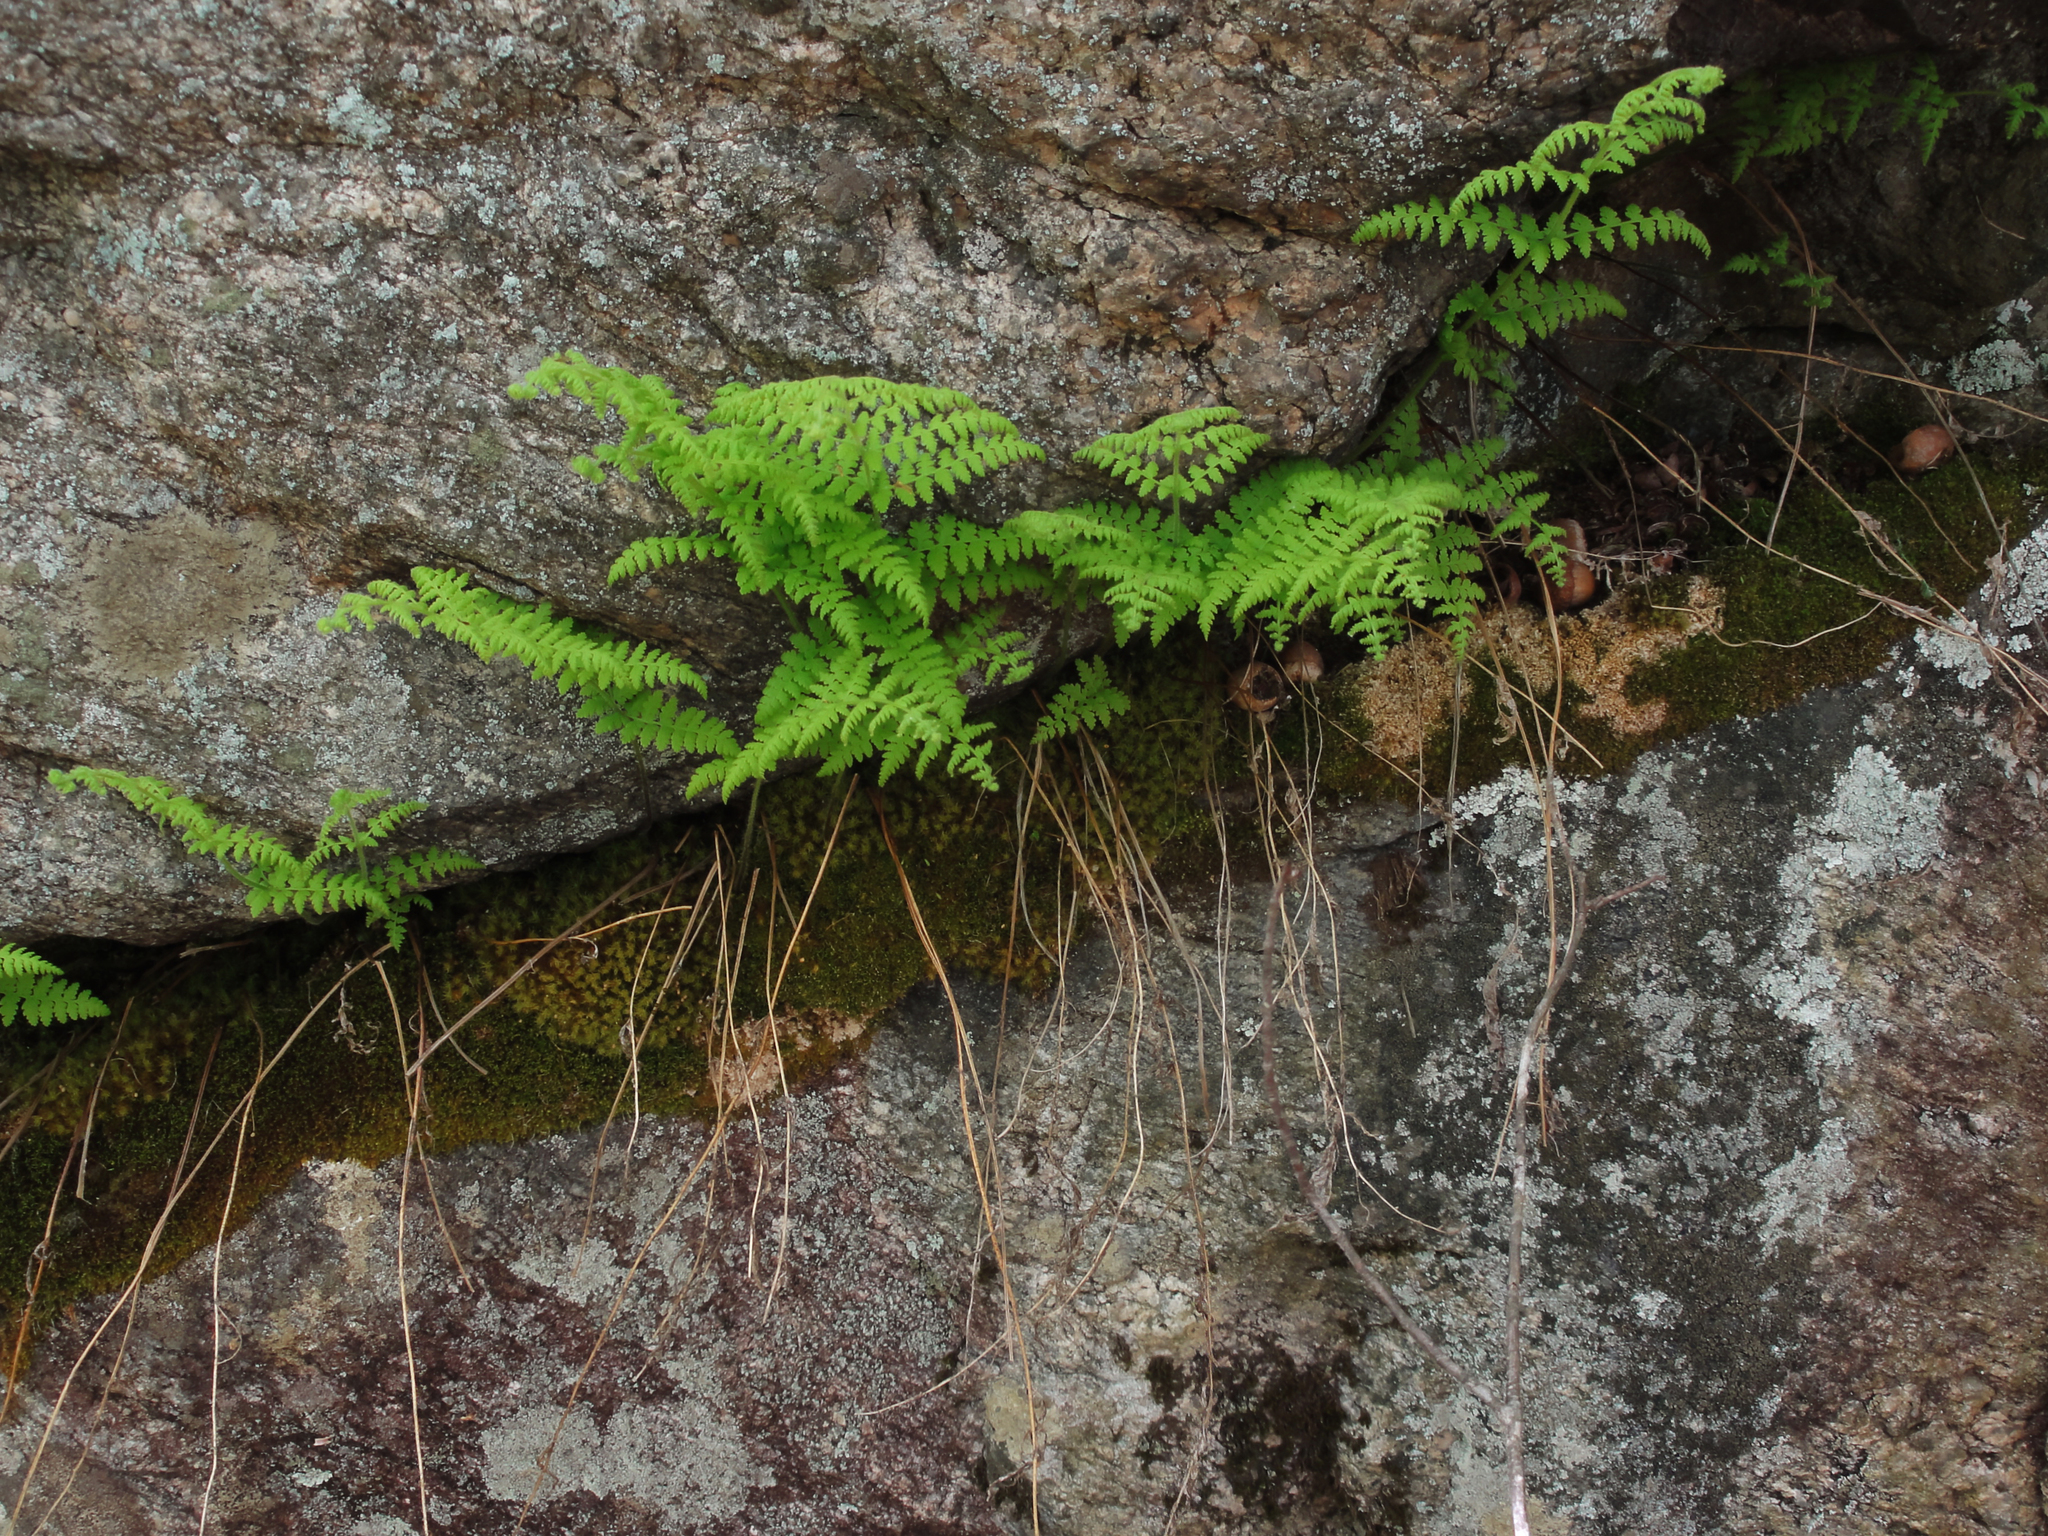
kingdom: Plantae
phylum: Tracheophyta
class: Polypodiopsida
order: Polypodiales
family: Dennstaedtiaceae
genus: Sitobolium
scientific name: Sitobolium punctilobum
